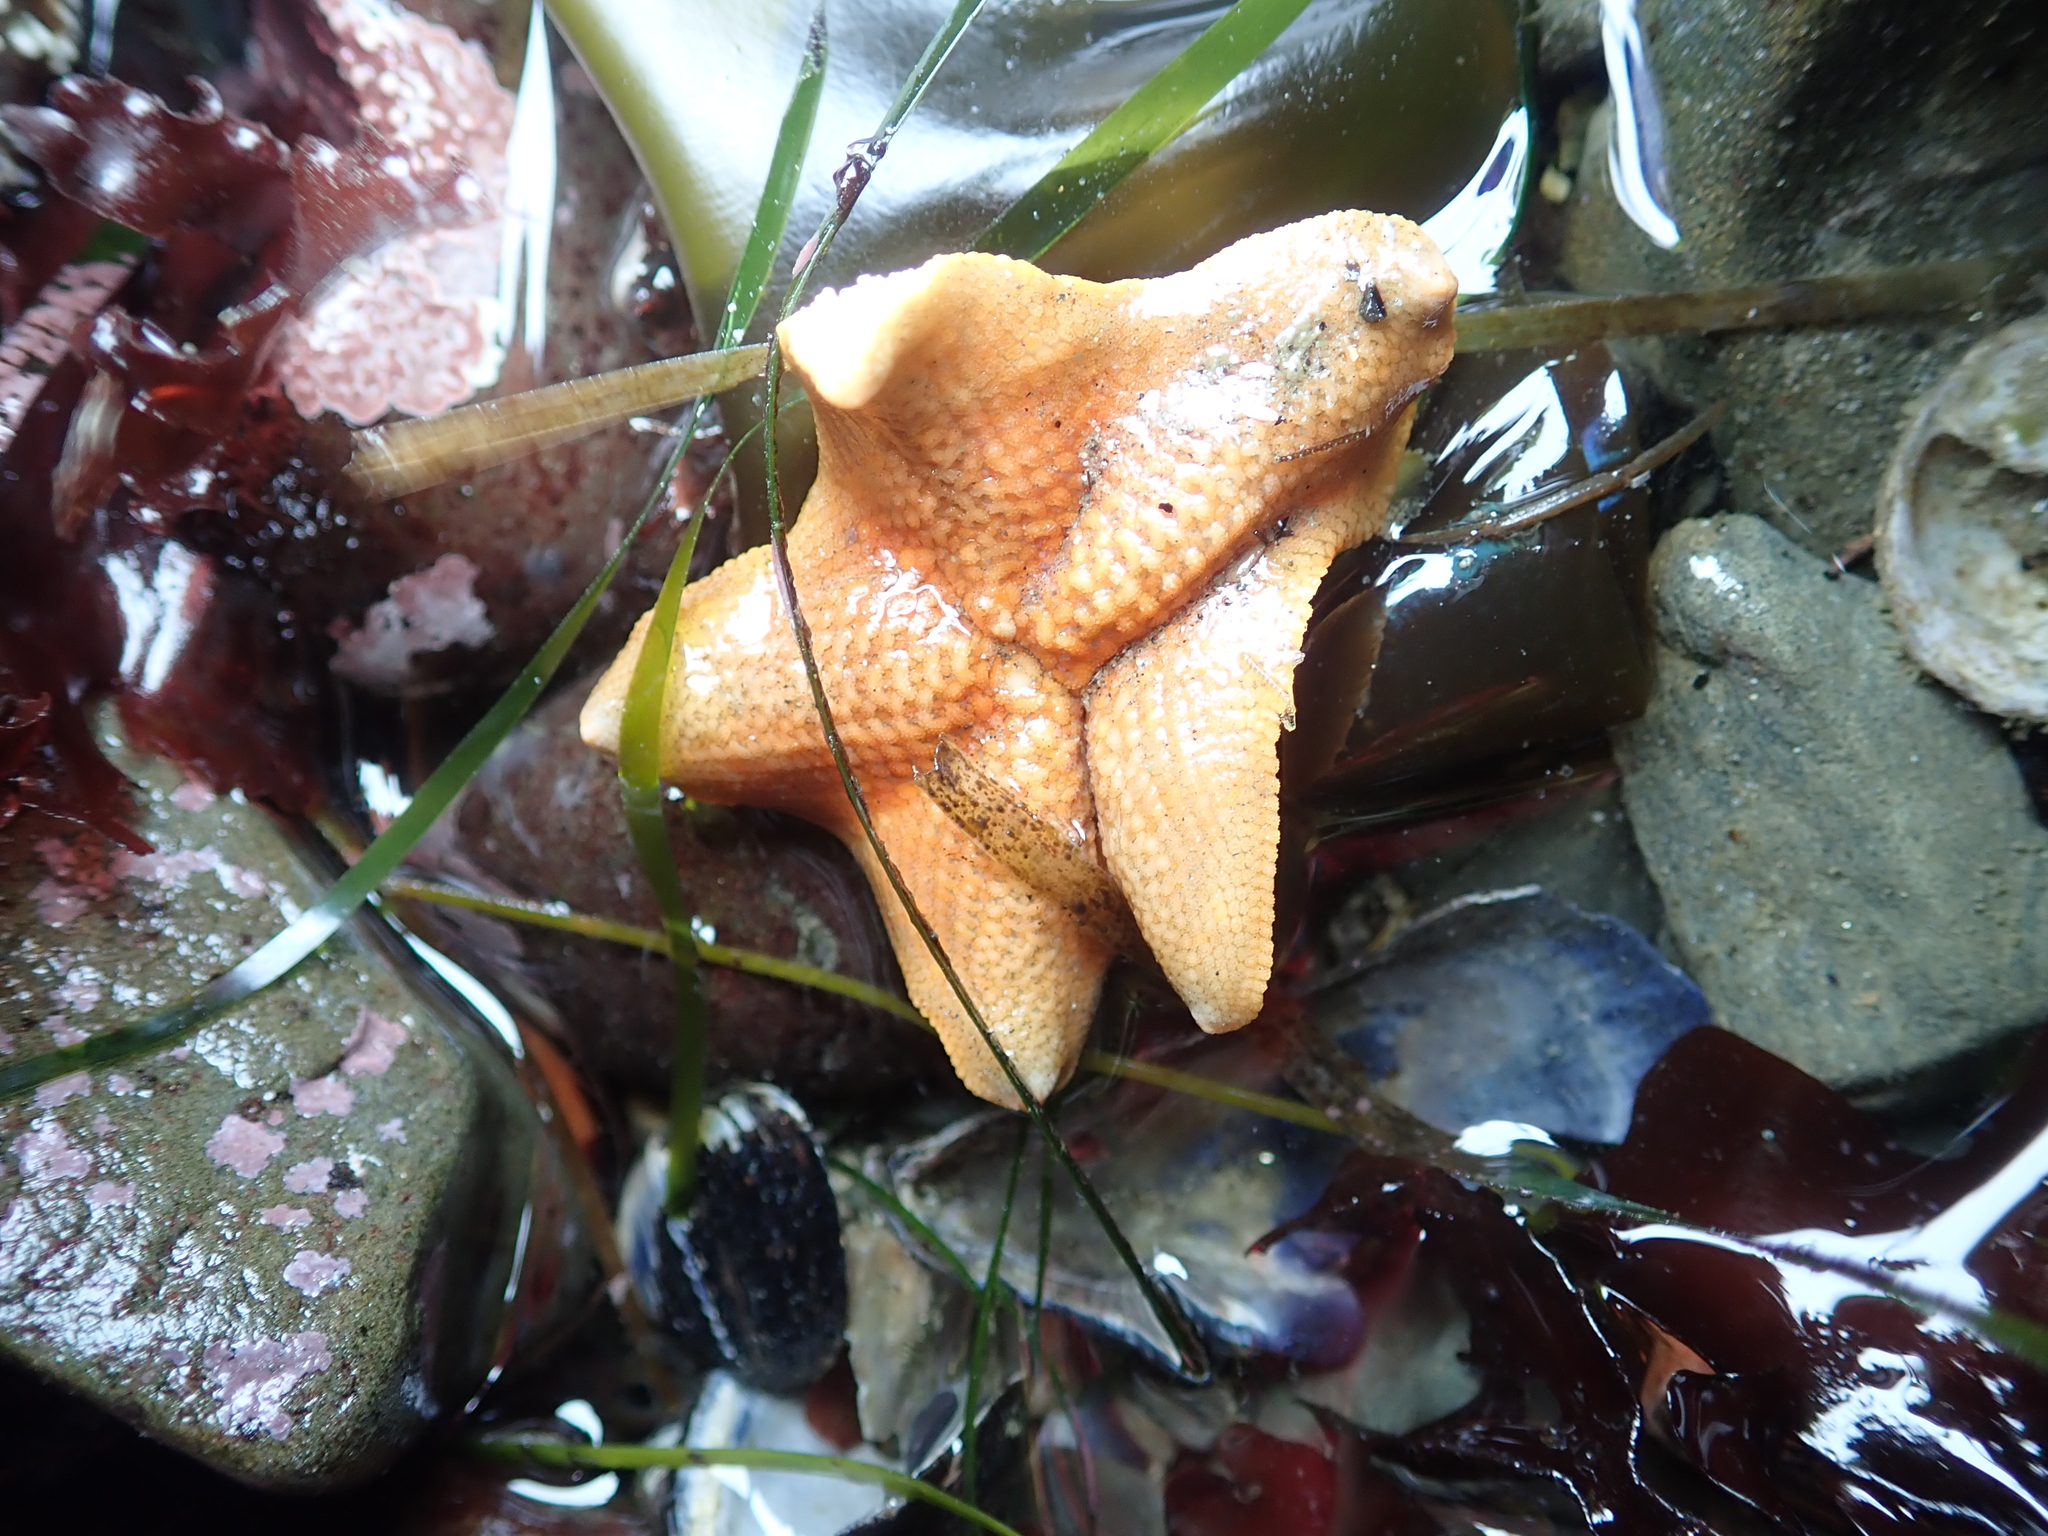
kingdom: Animalia
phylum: Echinodermata
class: Asteroidea
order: Valvatida
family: Asterinidae
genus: Patiria
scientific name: Patiria miniata
